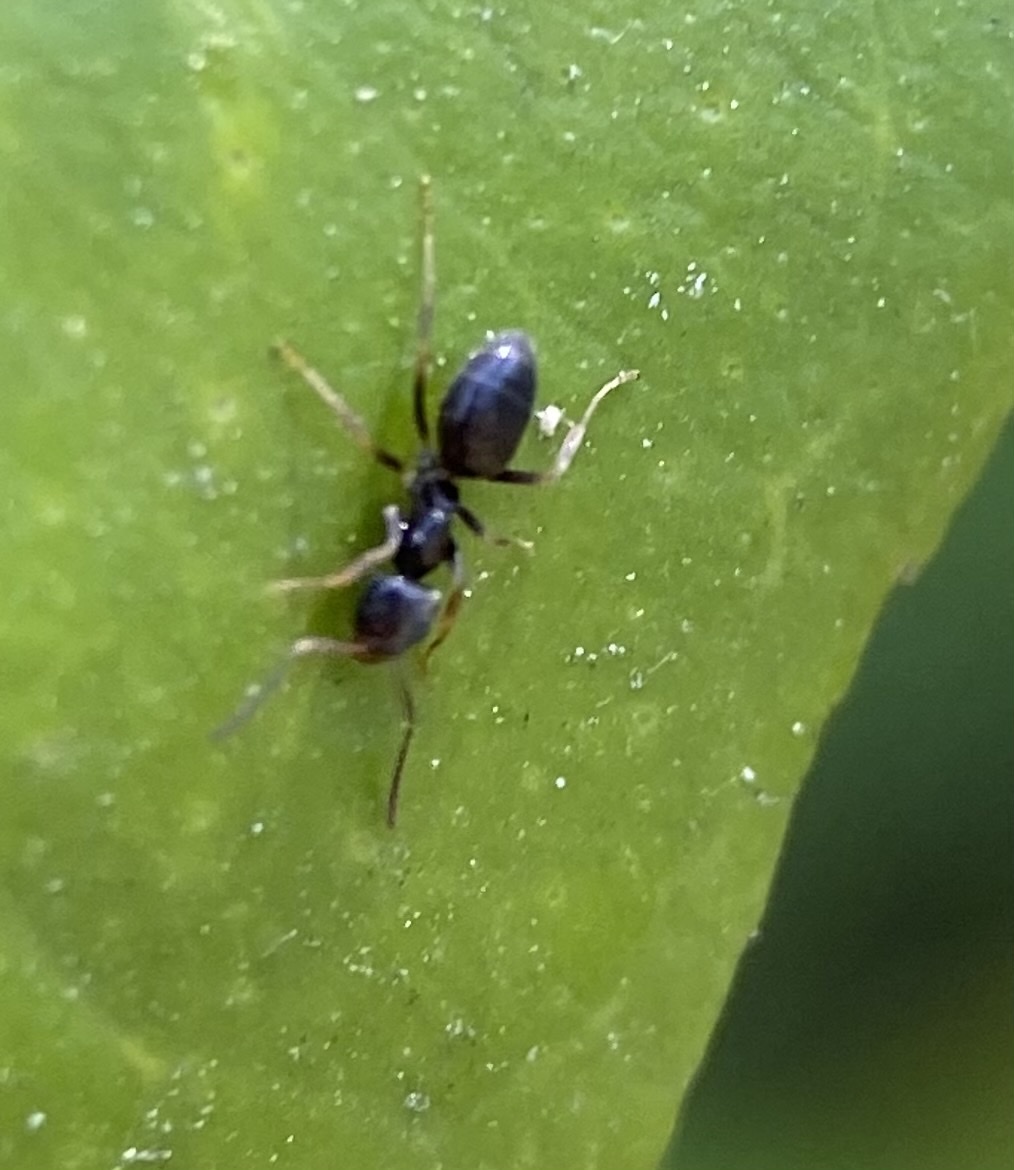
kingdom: Animalia
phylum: Arthropoda
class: Insecta
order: Hymenoptera
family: Formicidae
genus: Tapinoma
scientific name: Tapinoma sessile
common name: Odorous house ant
